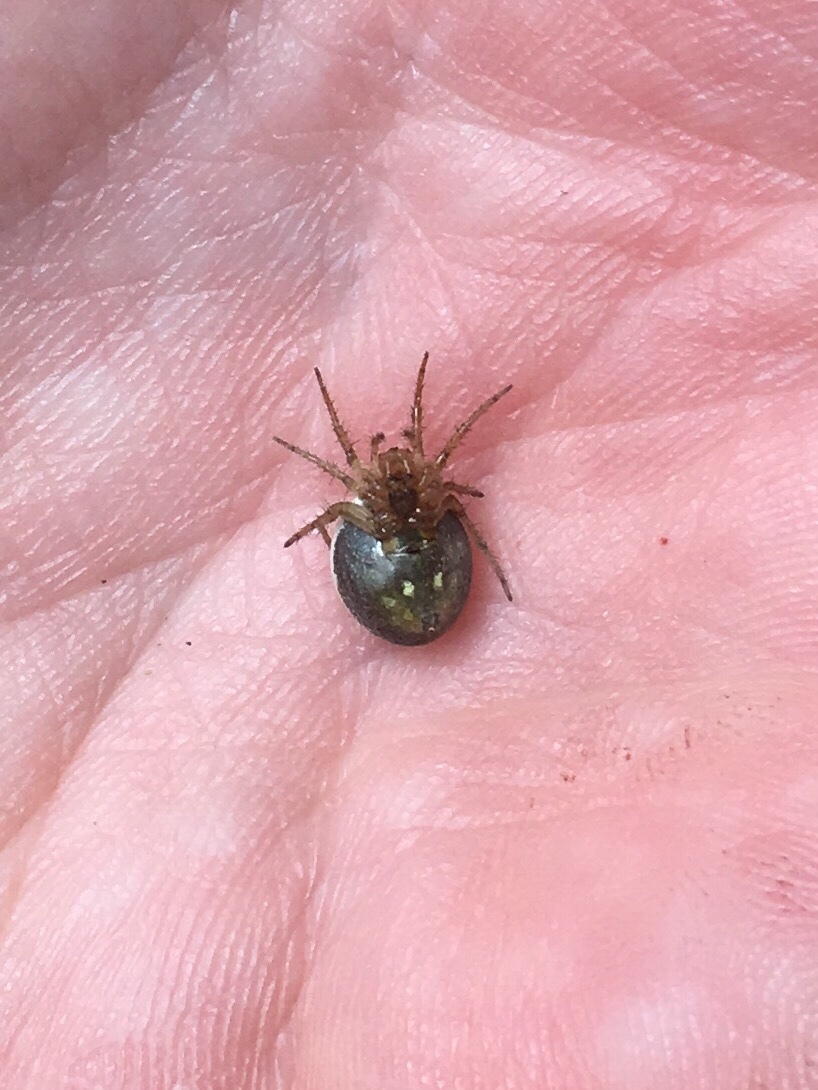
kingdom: Animalia
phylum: Arthropoda
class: Arachnida
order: Araneae
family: Araneidae
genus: Araniella
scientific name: Araniella displicata
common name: Sixspotted orb weaver
